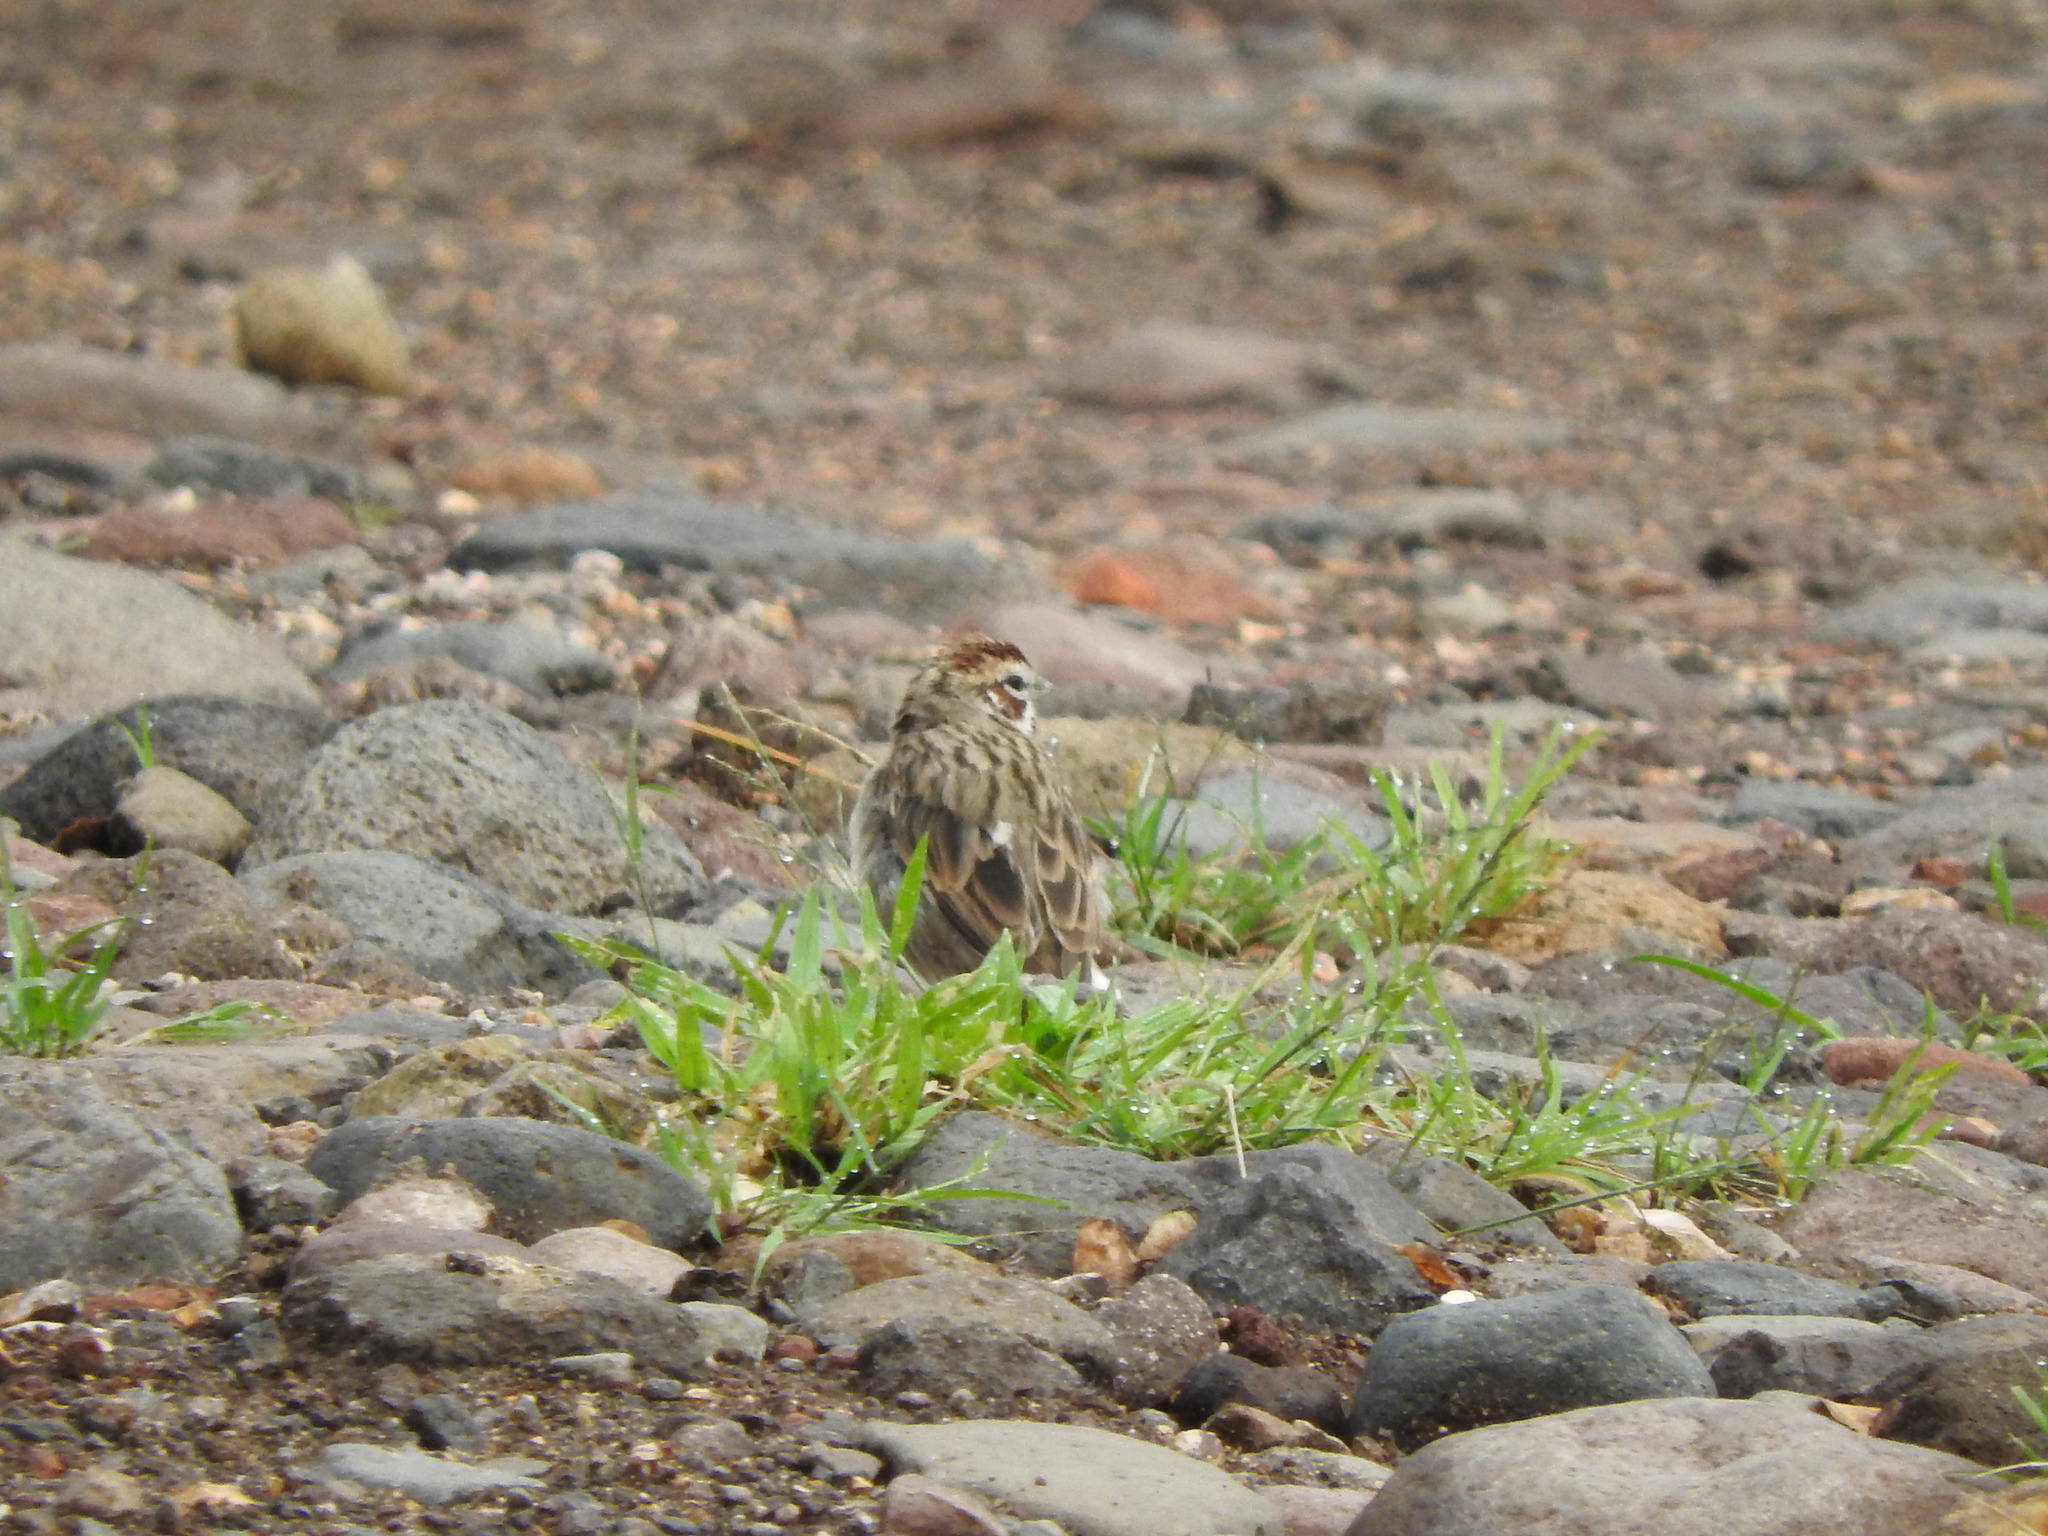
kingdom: Animalia
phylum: Chordata
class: Aves
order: Passeriformes
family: Passerellidae
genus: Chondestes
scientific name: Chondestes grammacus
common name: Lark sparrow
